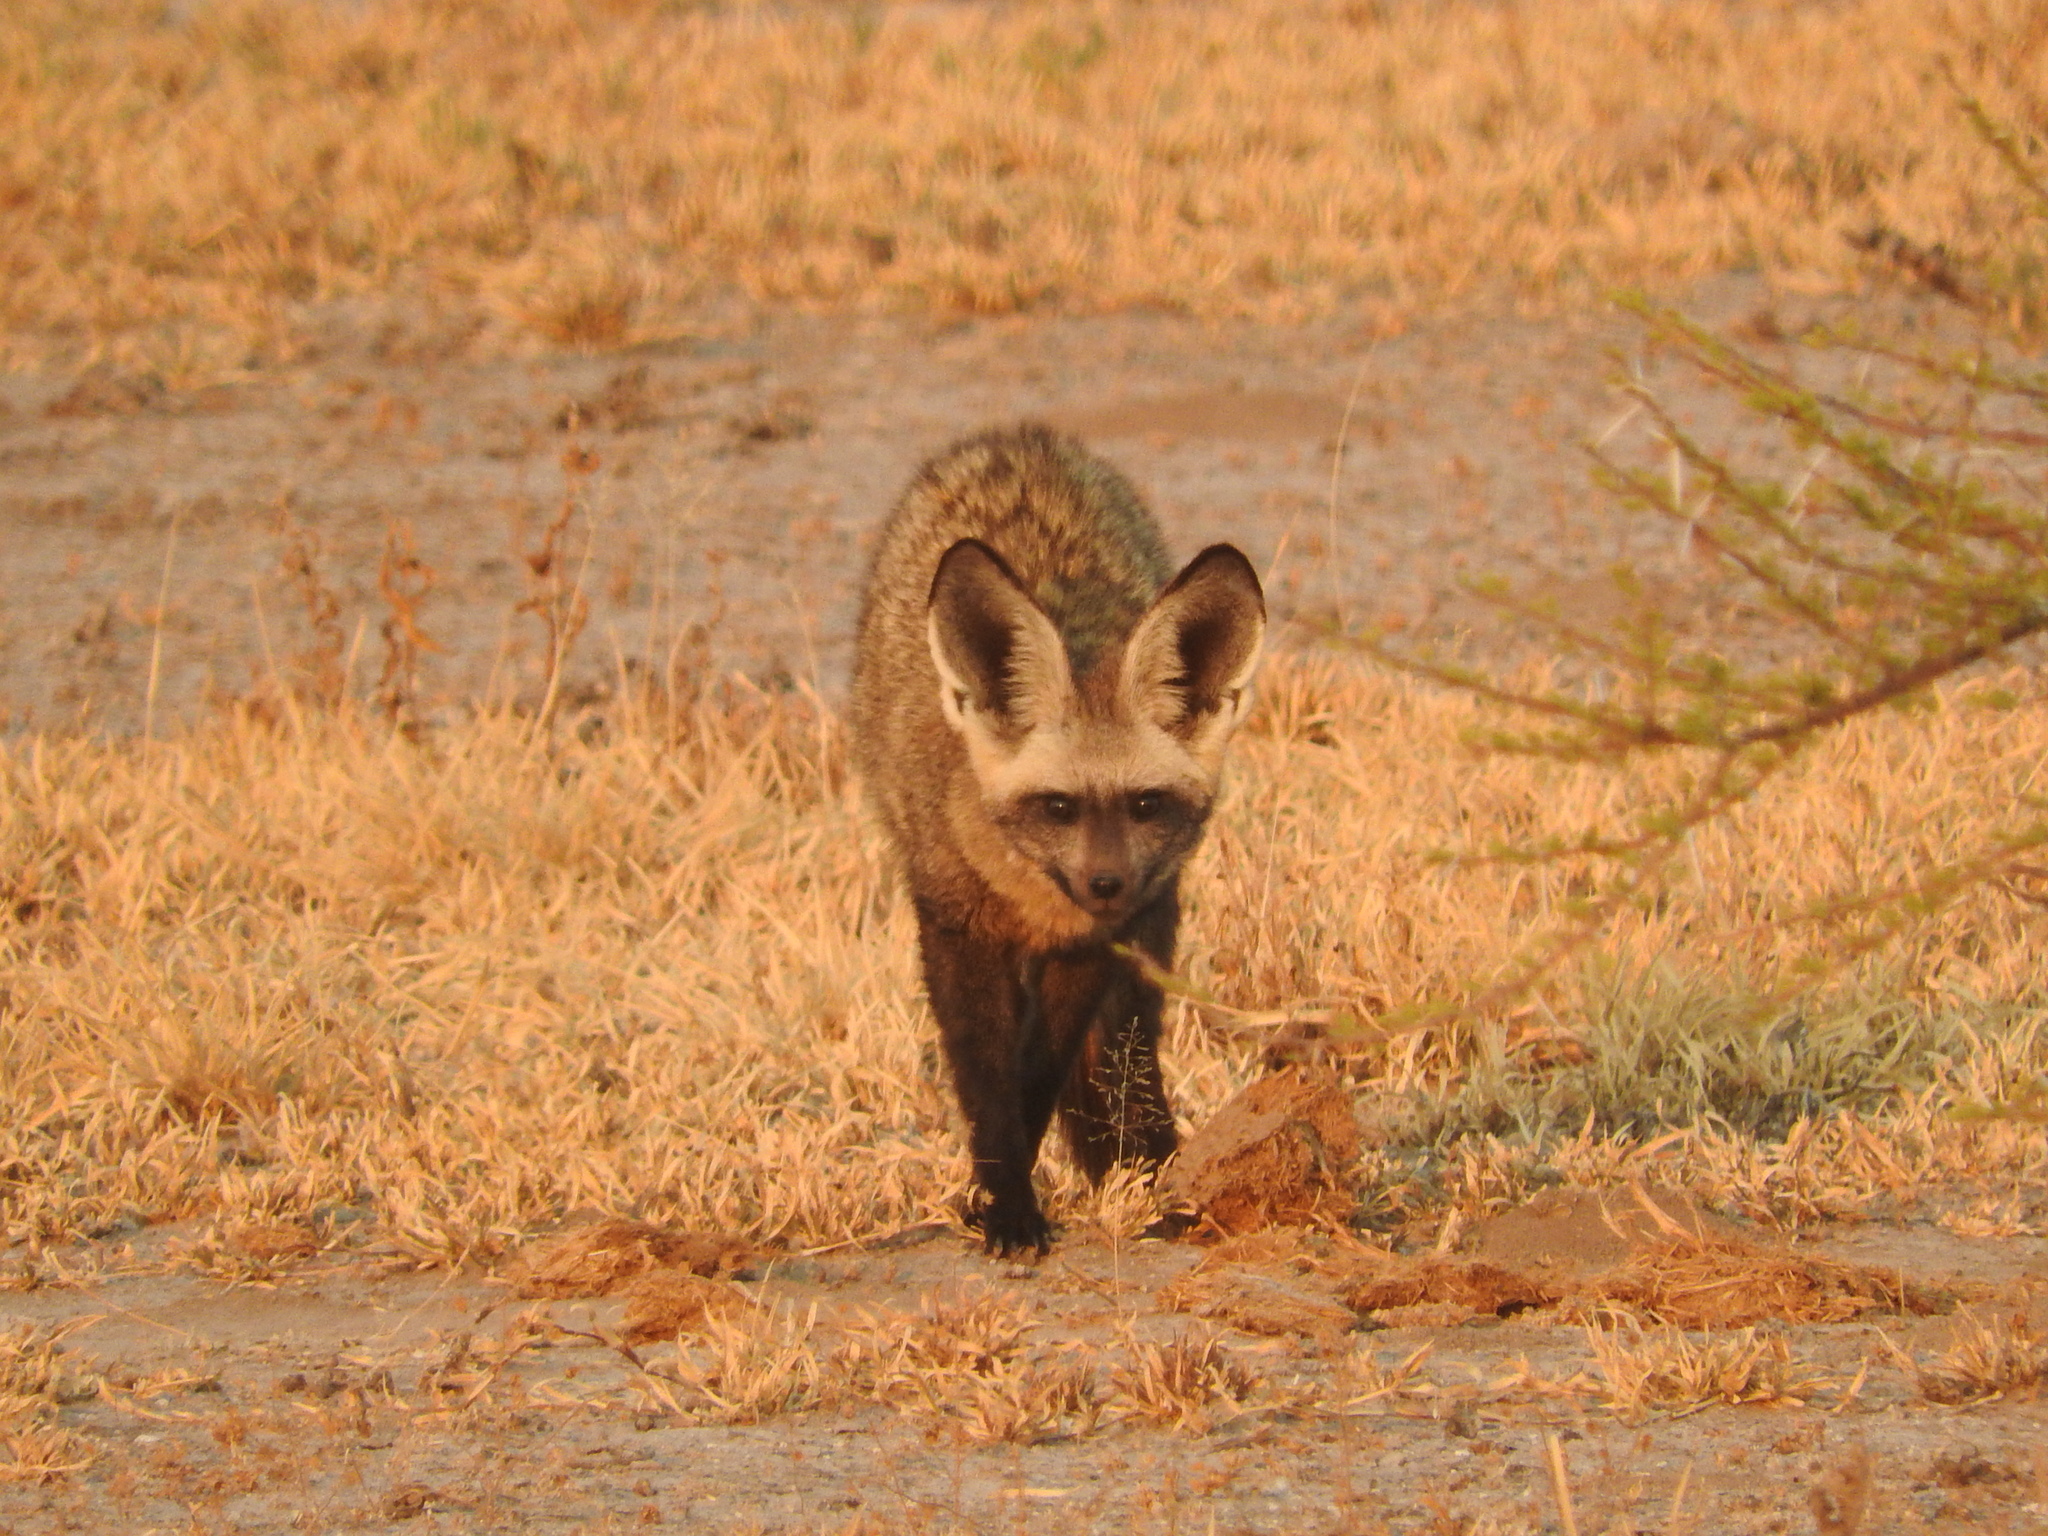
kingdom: Animalia
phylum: Chordata
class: Mammalia
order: Carnivora
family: Canidae
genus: Otocyon
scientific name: Otocyon megalotis
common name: Bat-eared fox
